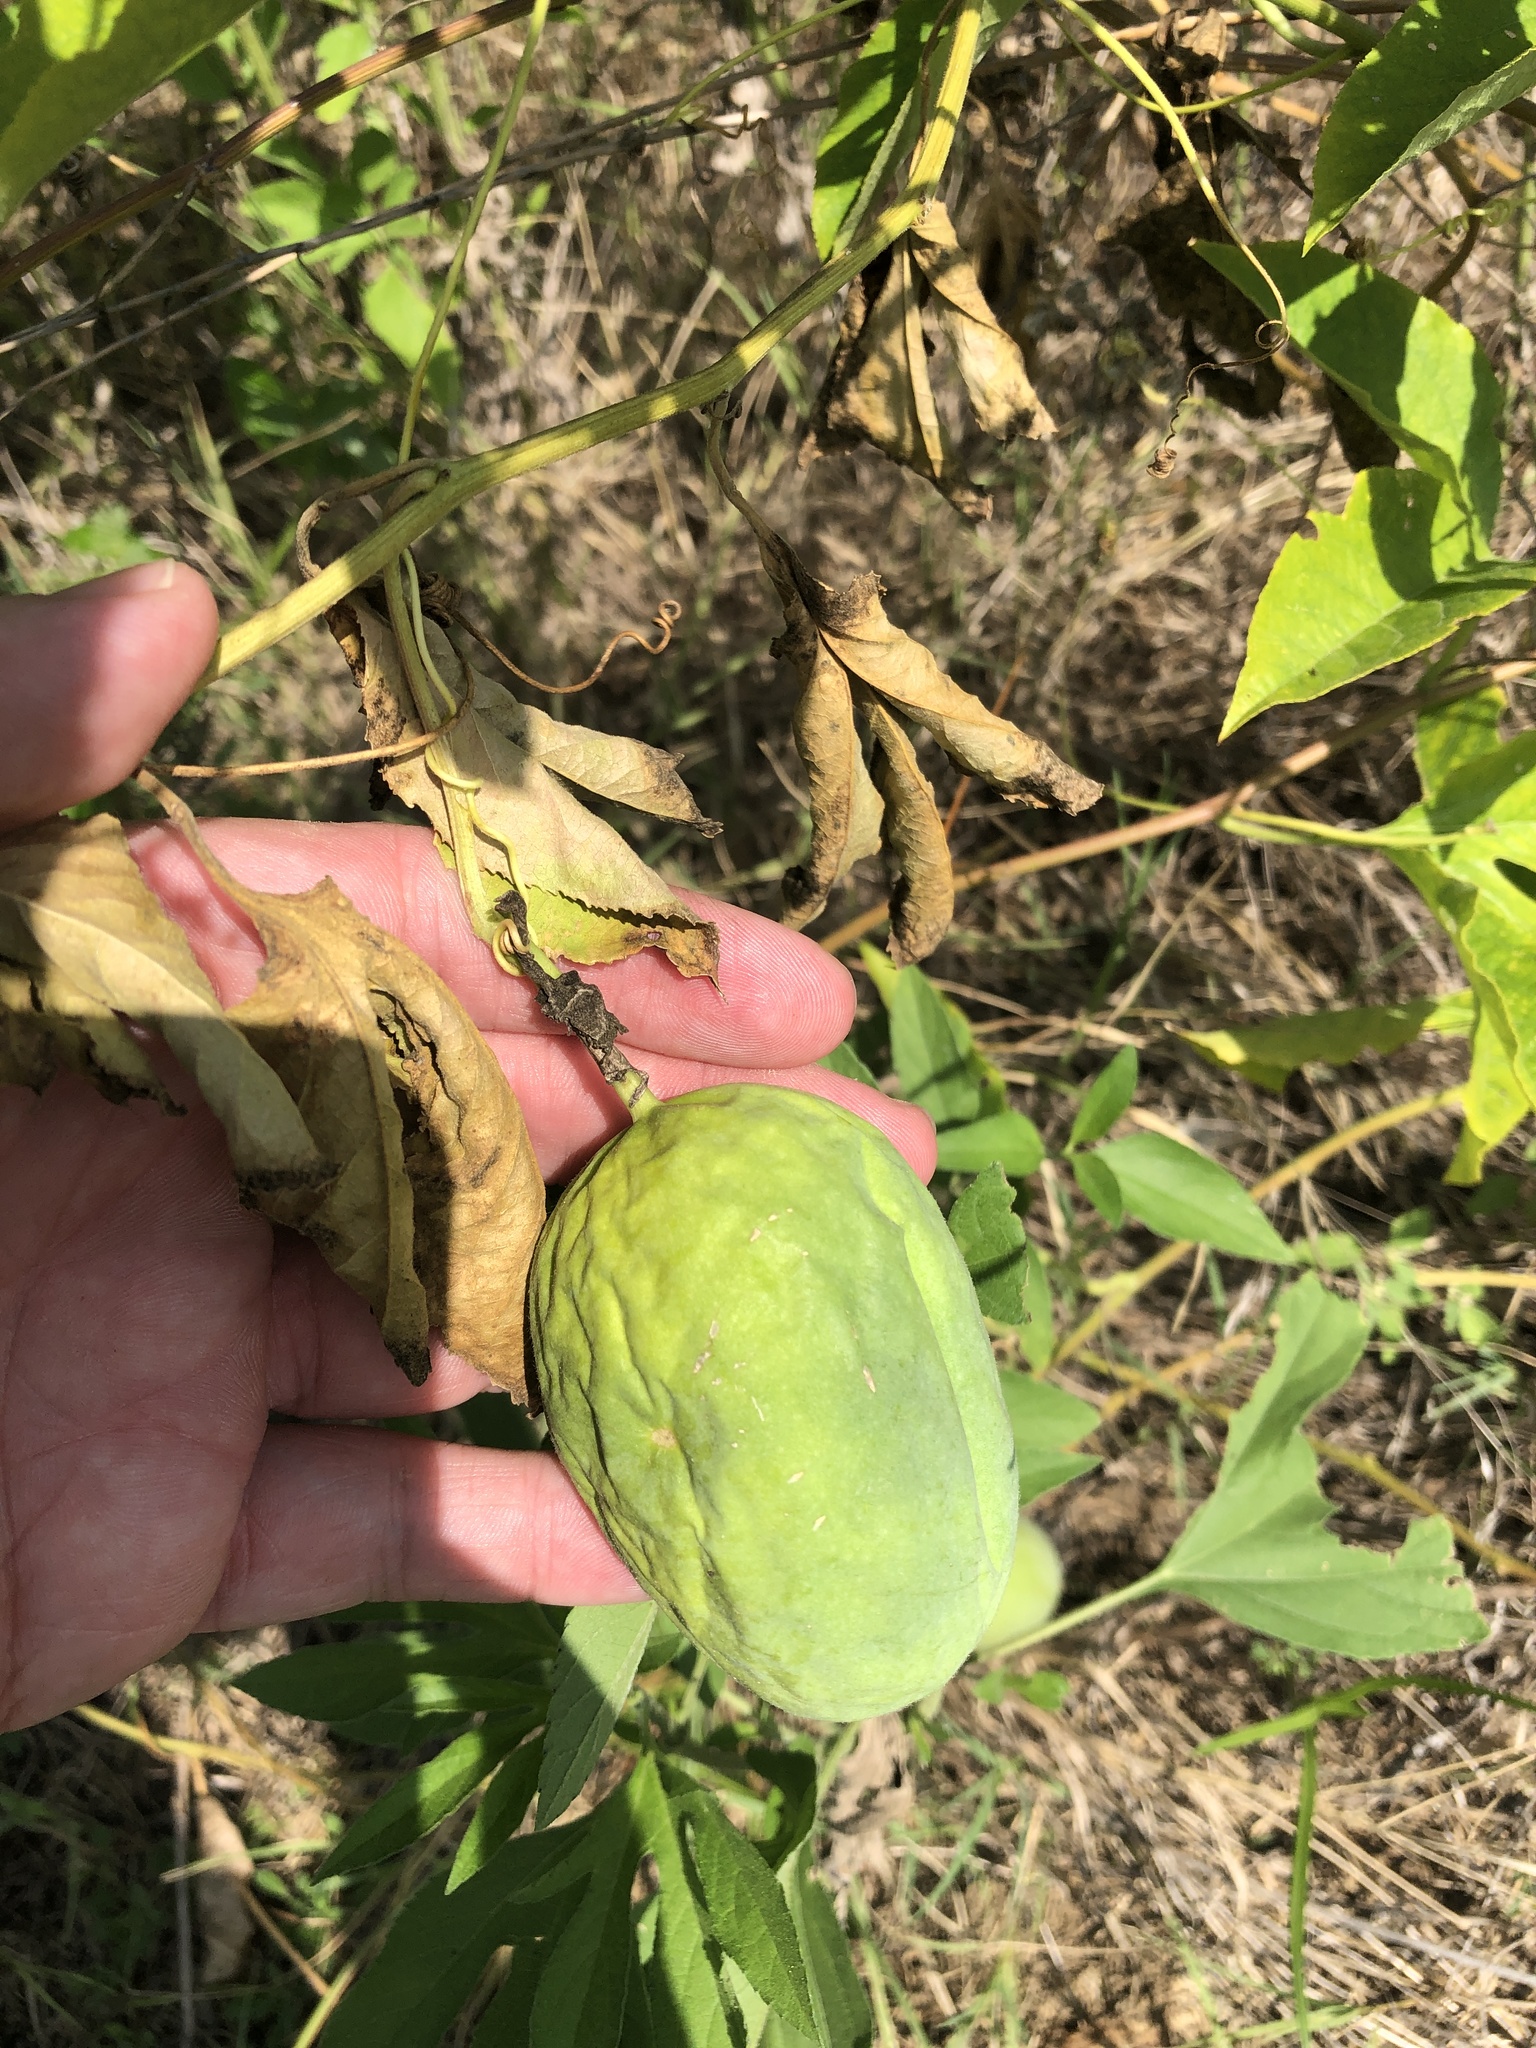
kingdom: Plantae
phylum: Tracheophyta
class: Magnoliopsida
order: Malpighiales
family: Passifloraceae
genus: Passiflora
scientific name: Passiflora incarnata
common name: Apricot-vine
